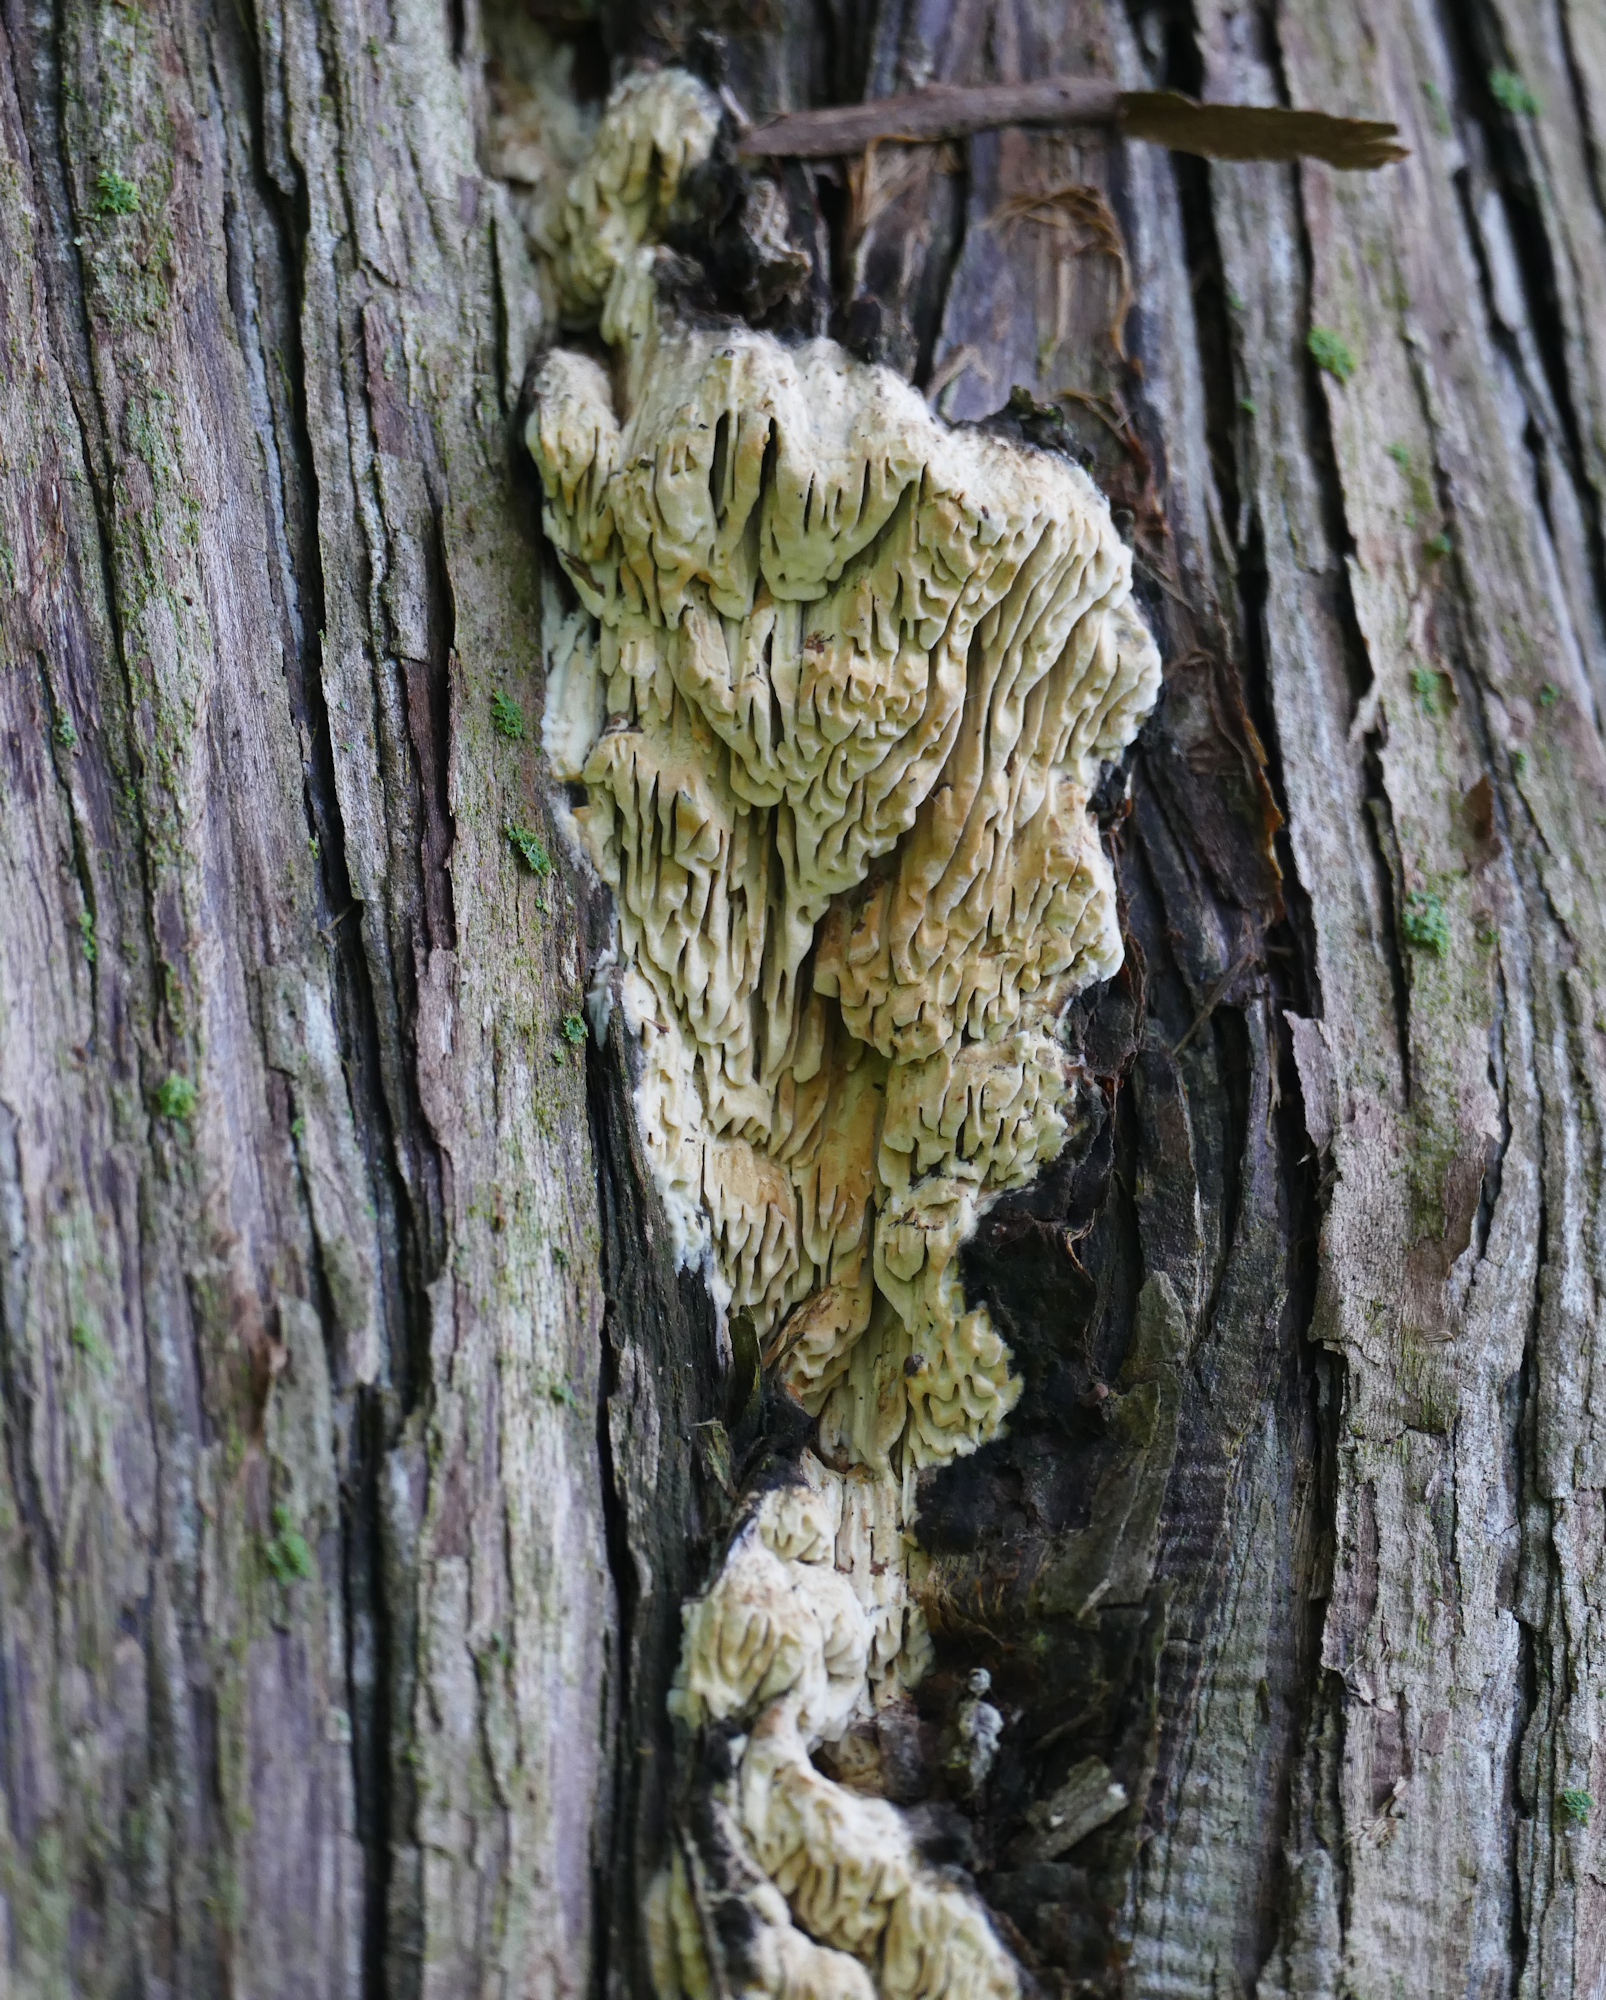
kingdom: Fungi
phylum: Basidiomycota
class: Agaricomycetes
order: Polyporales
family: Fomitopsidaceae
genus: Fomitopsis
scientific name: Fomitopsis
